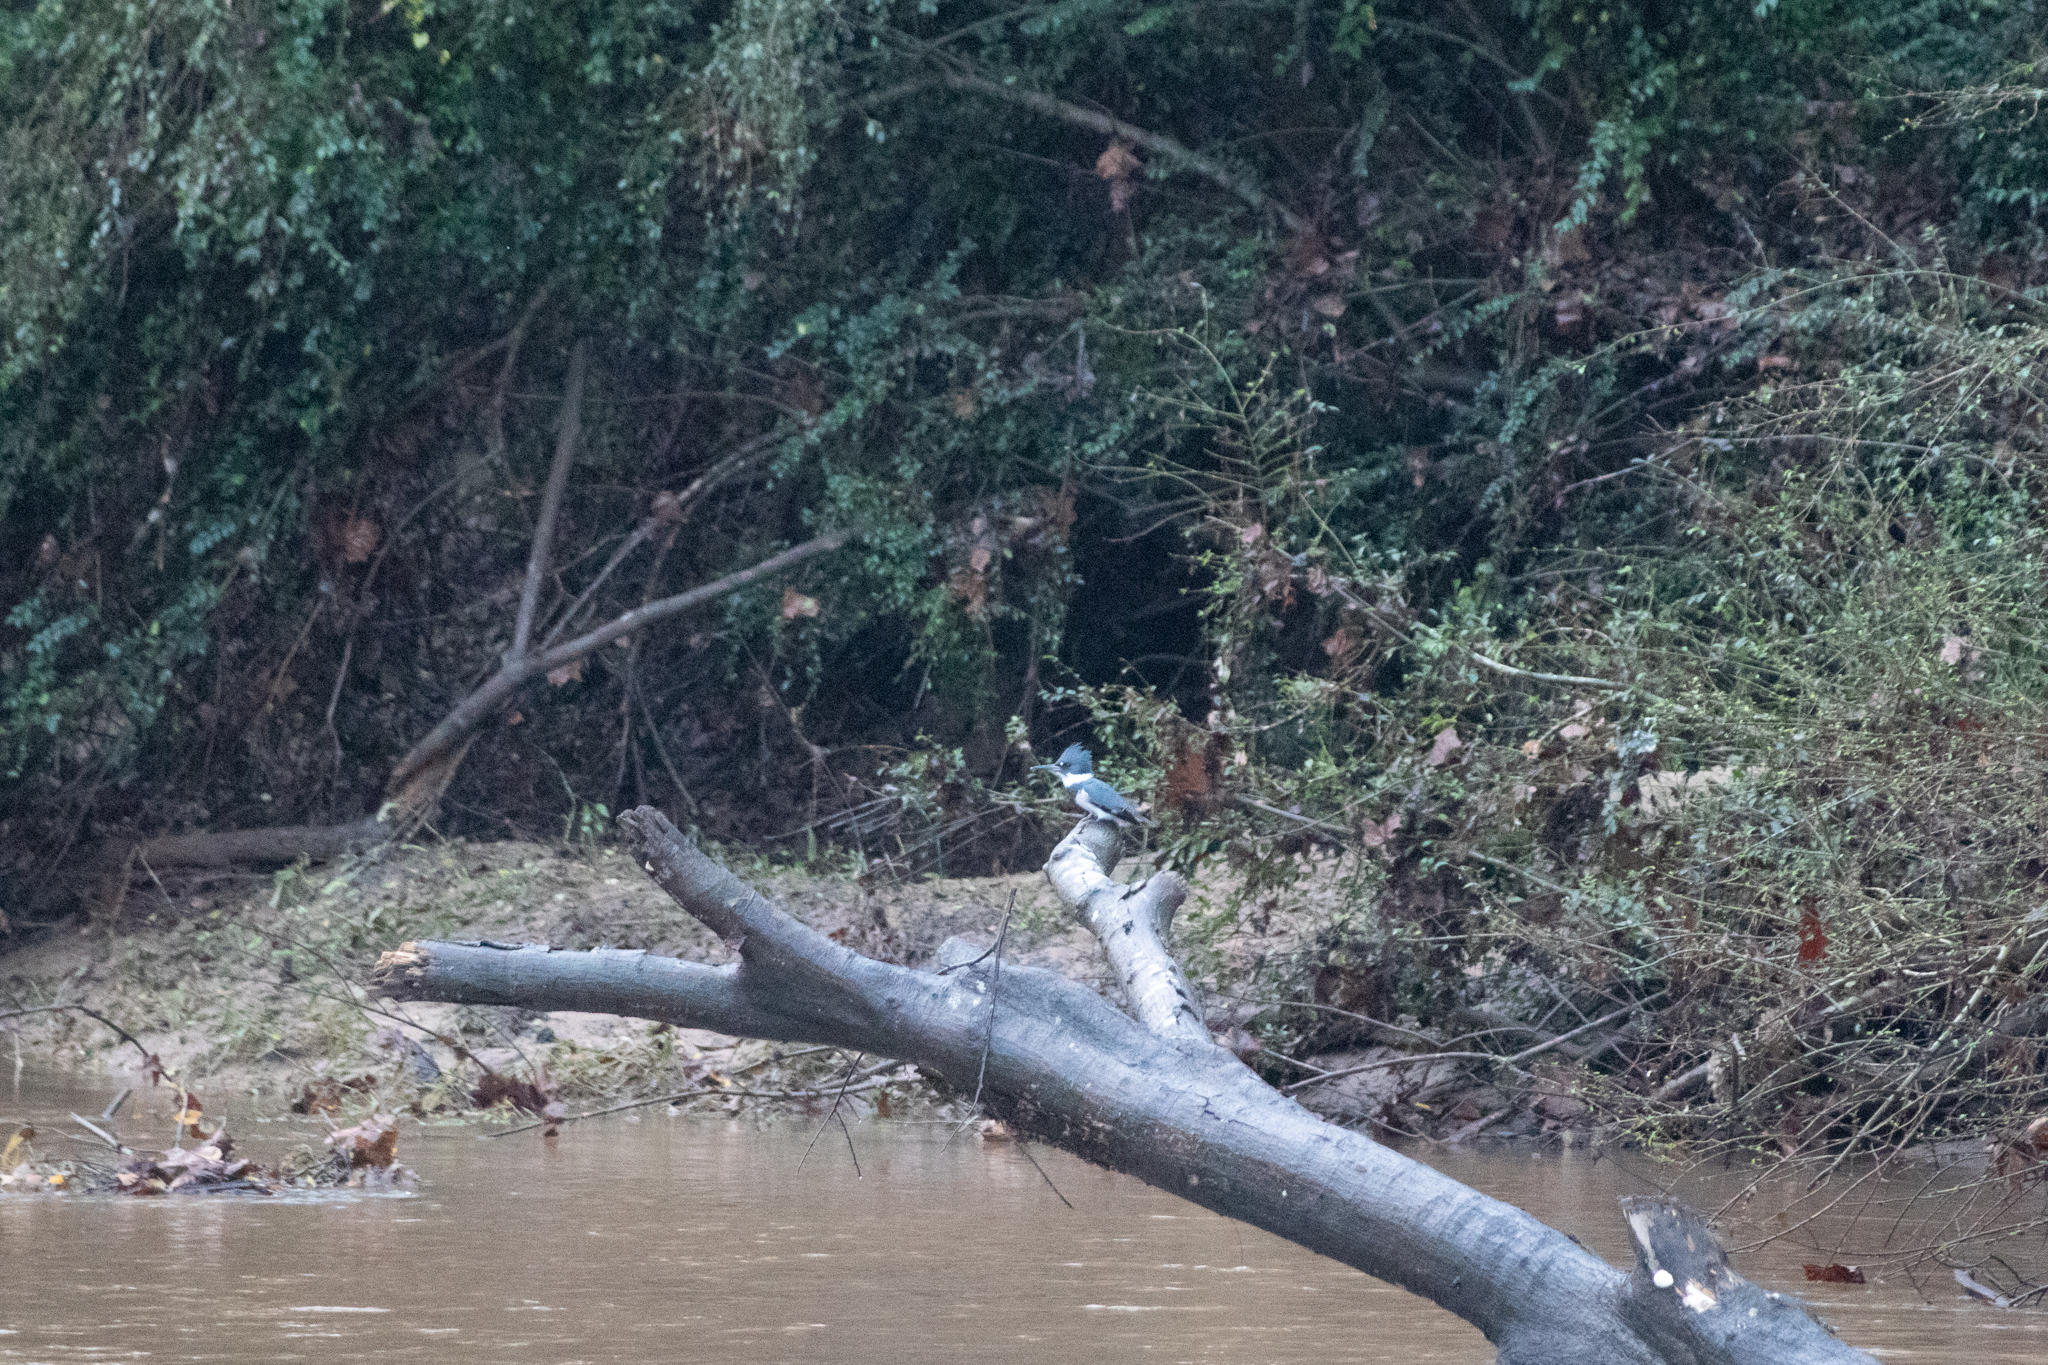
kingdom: Animalia
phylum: Chordata
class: Aves
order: Coraciiformes
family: Alcedinidae
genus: Megaceryle
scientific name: Megaceryle alcyon
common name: Belted kingfisher
